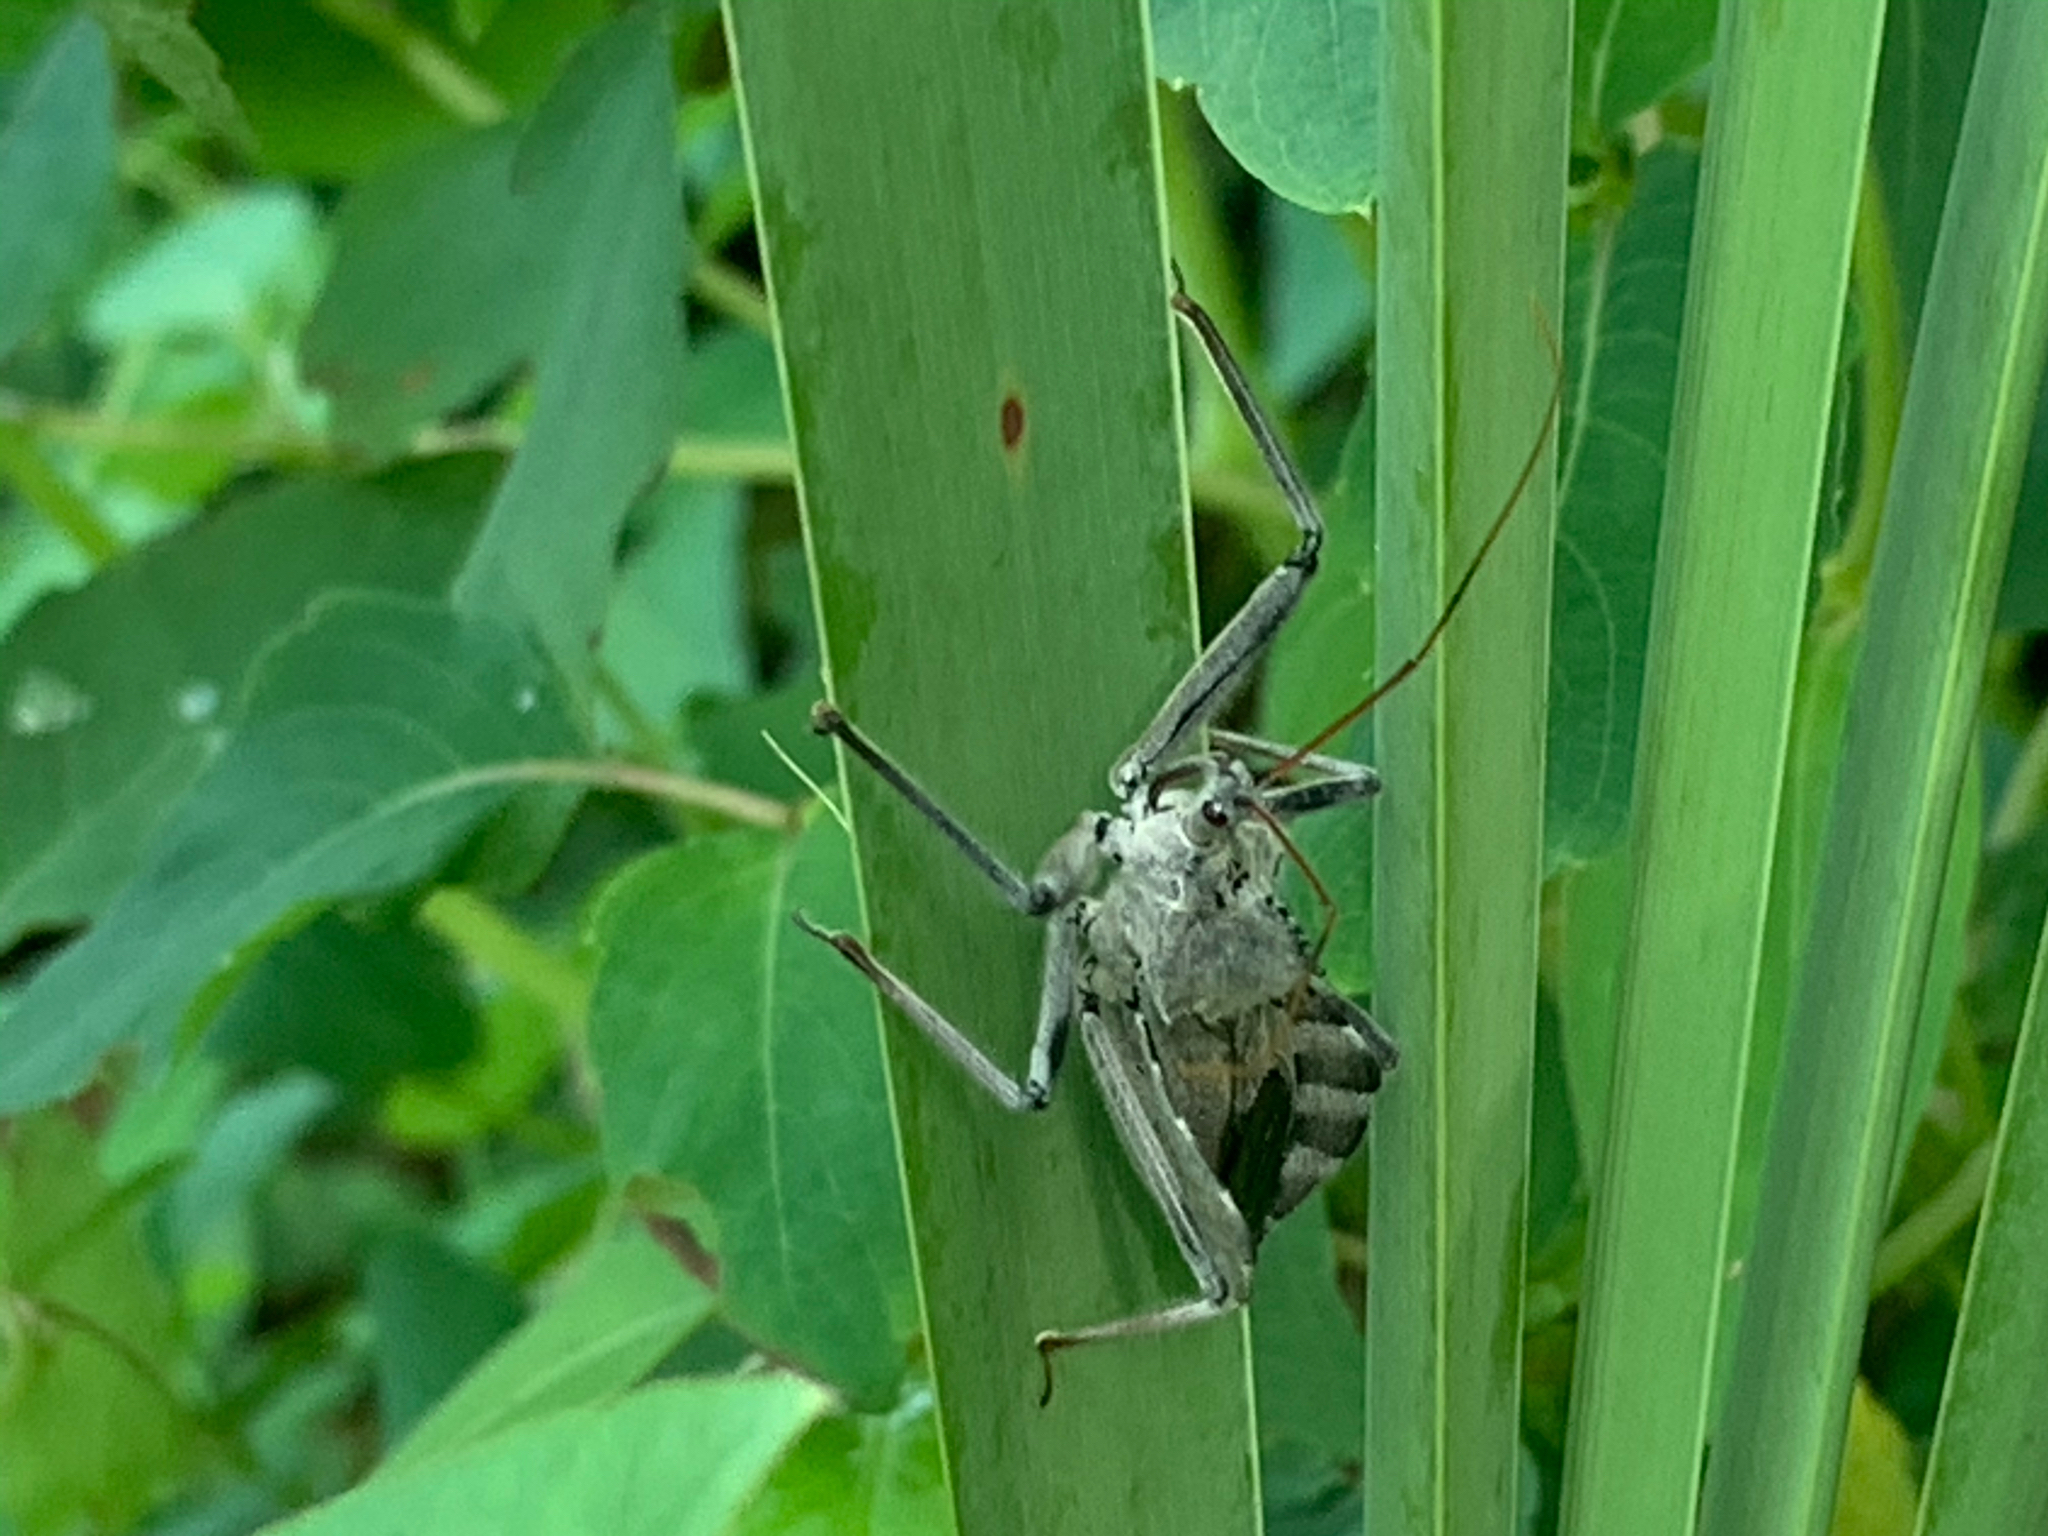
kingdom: Animalia
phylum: Arthropoda
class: Insecta
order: Hemiptera
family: Reduviidae
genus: Arilus
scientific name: Arilus cristatus
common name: North american wheel bug
